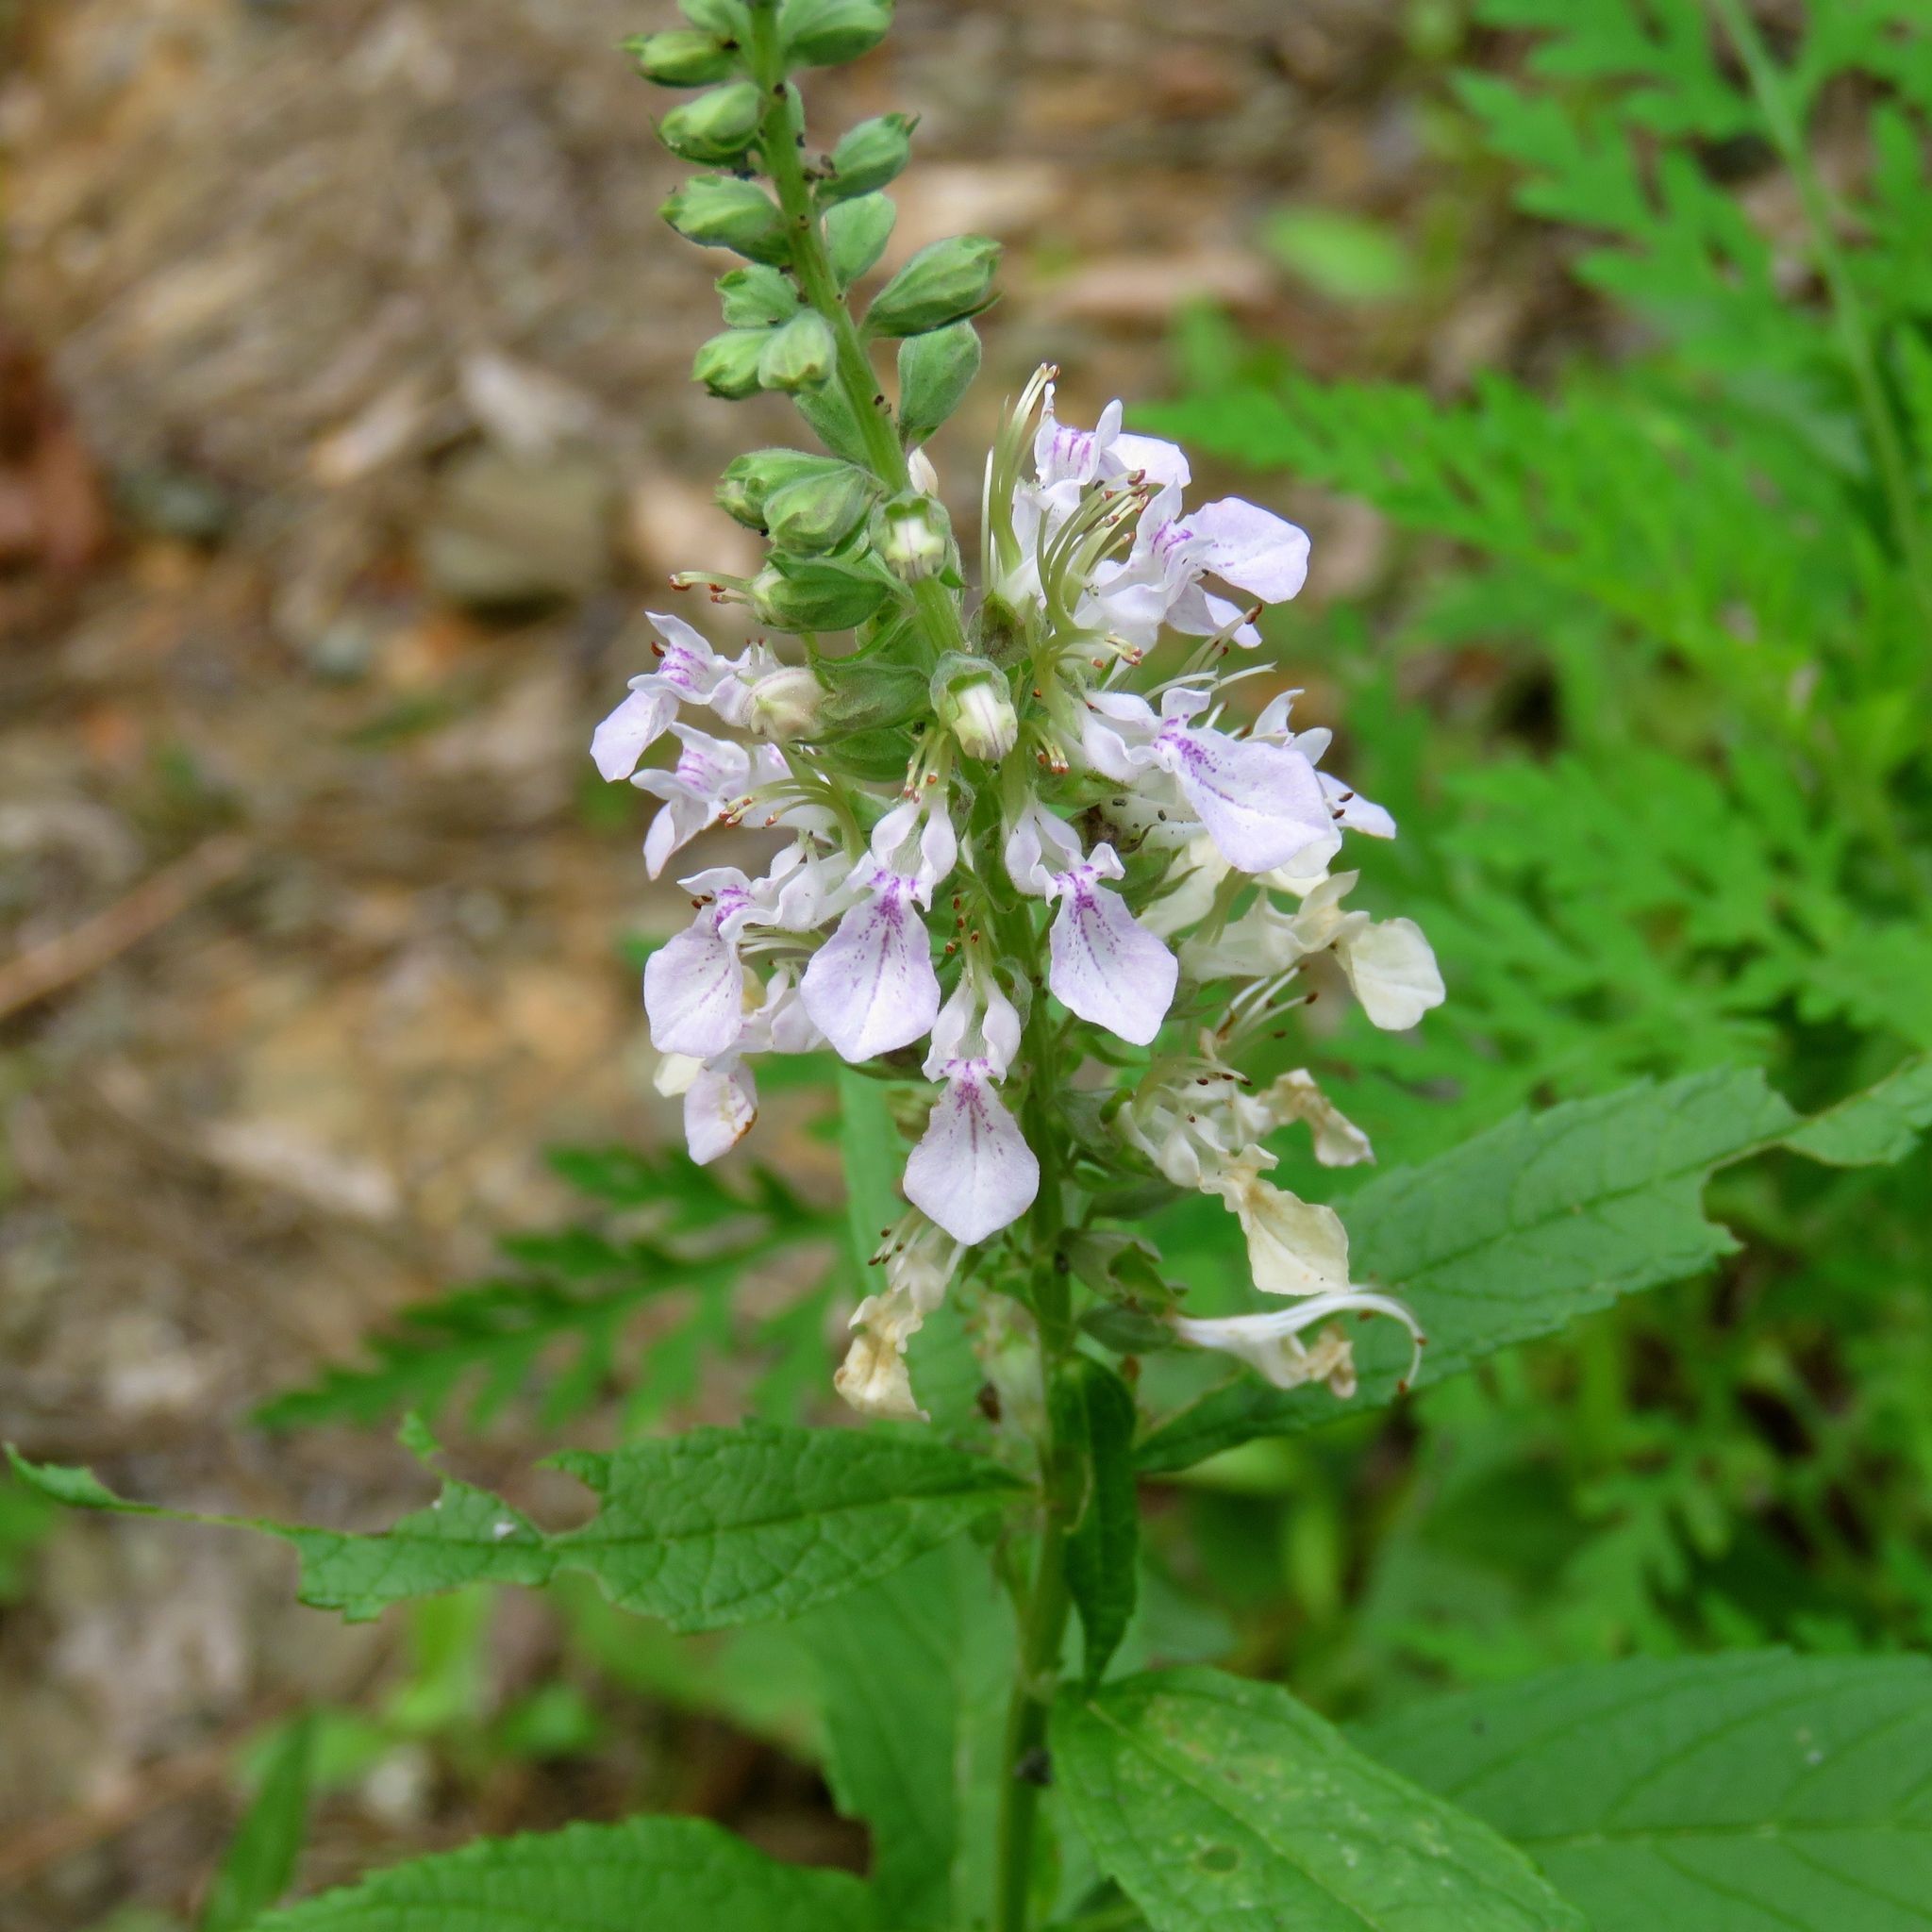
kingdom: Plantae
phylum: Tracheophyta
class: Magnoliopsida
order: Lamiales
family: Lamiaceae
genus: Teucrium
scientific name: Teucrium canadense
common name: American germander
